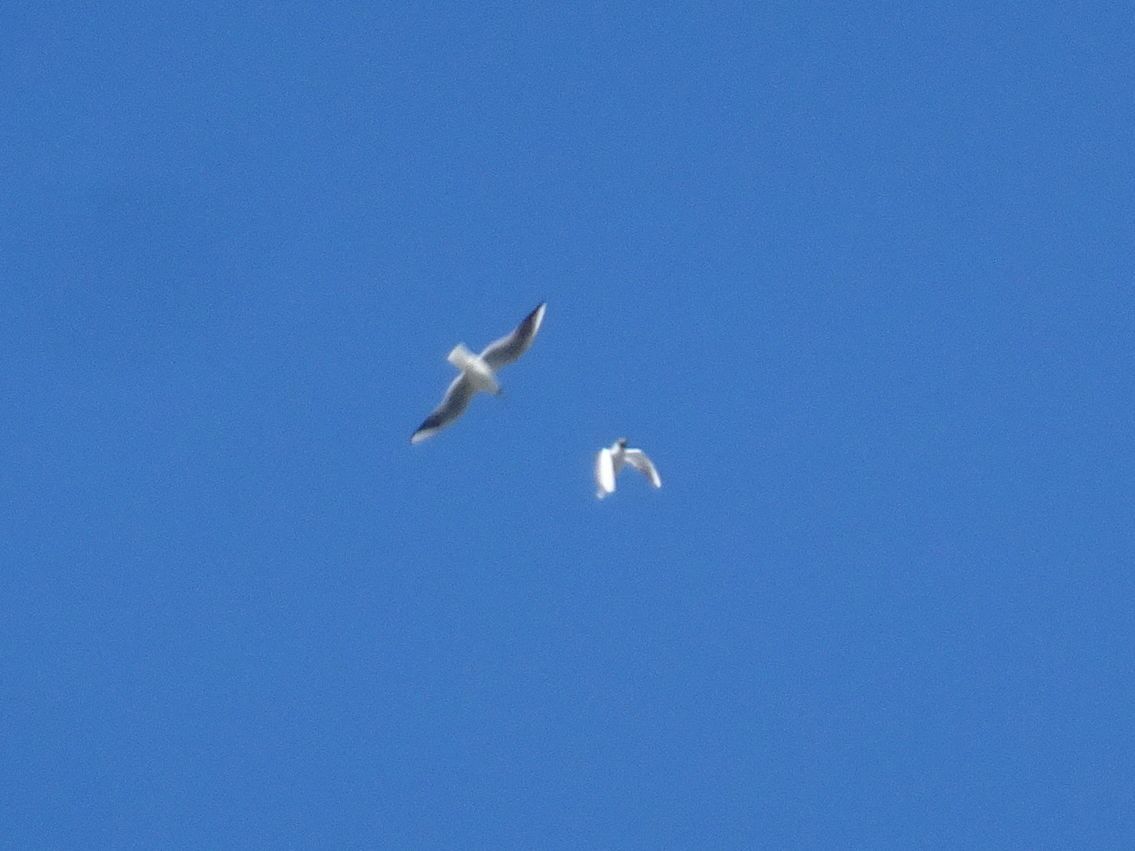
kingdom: Animalia
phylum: Chordata
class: Aves
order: Charadriiformes
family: Laridae
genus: Chroicocephalus
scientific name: Chroicocephalus ridibundus
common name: Black-headed gull
